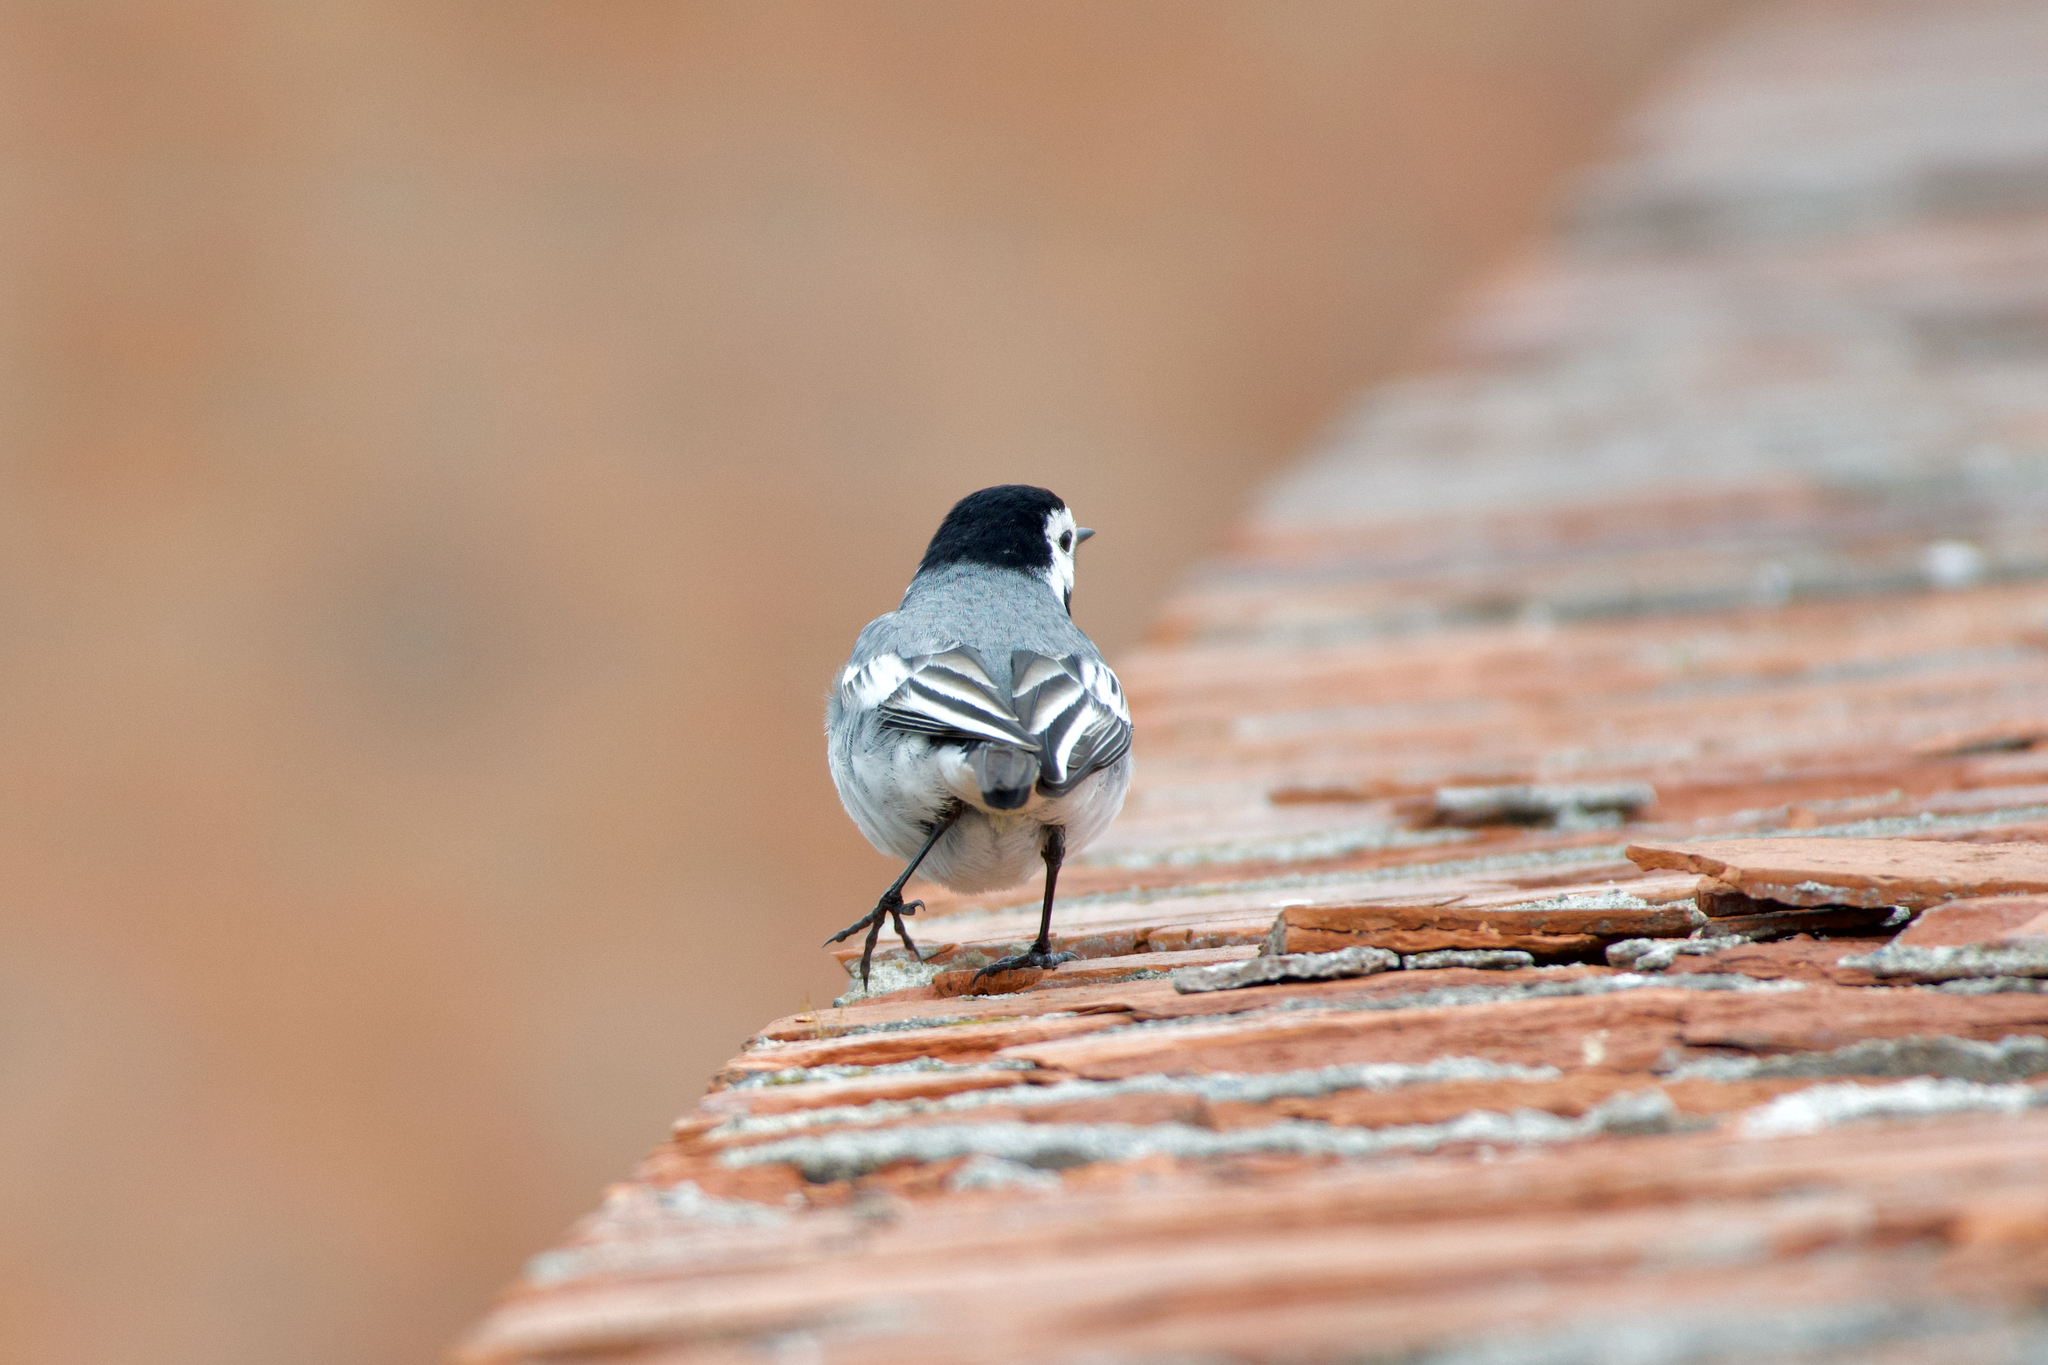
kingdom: Animalia
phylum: Chordata
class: Aves
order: Passeriformes
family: Motacillidae
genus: Motacilla
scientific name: Motacilla alba
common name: White wagtail
